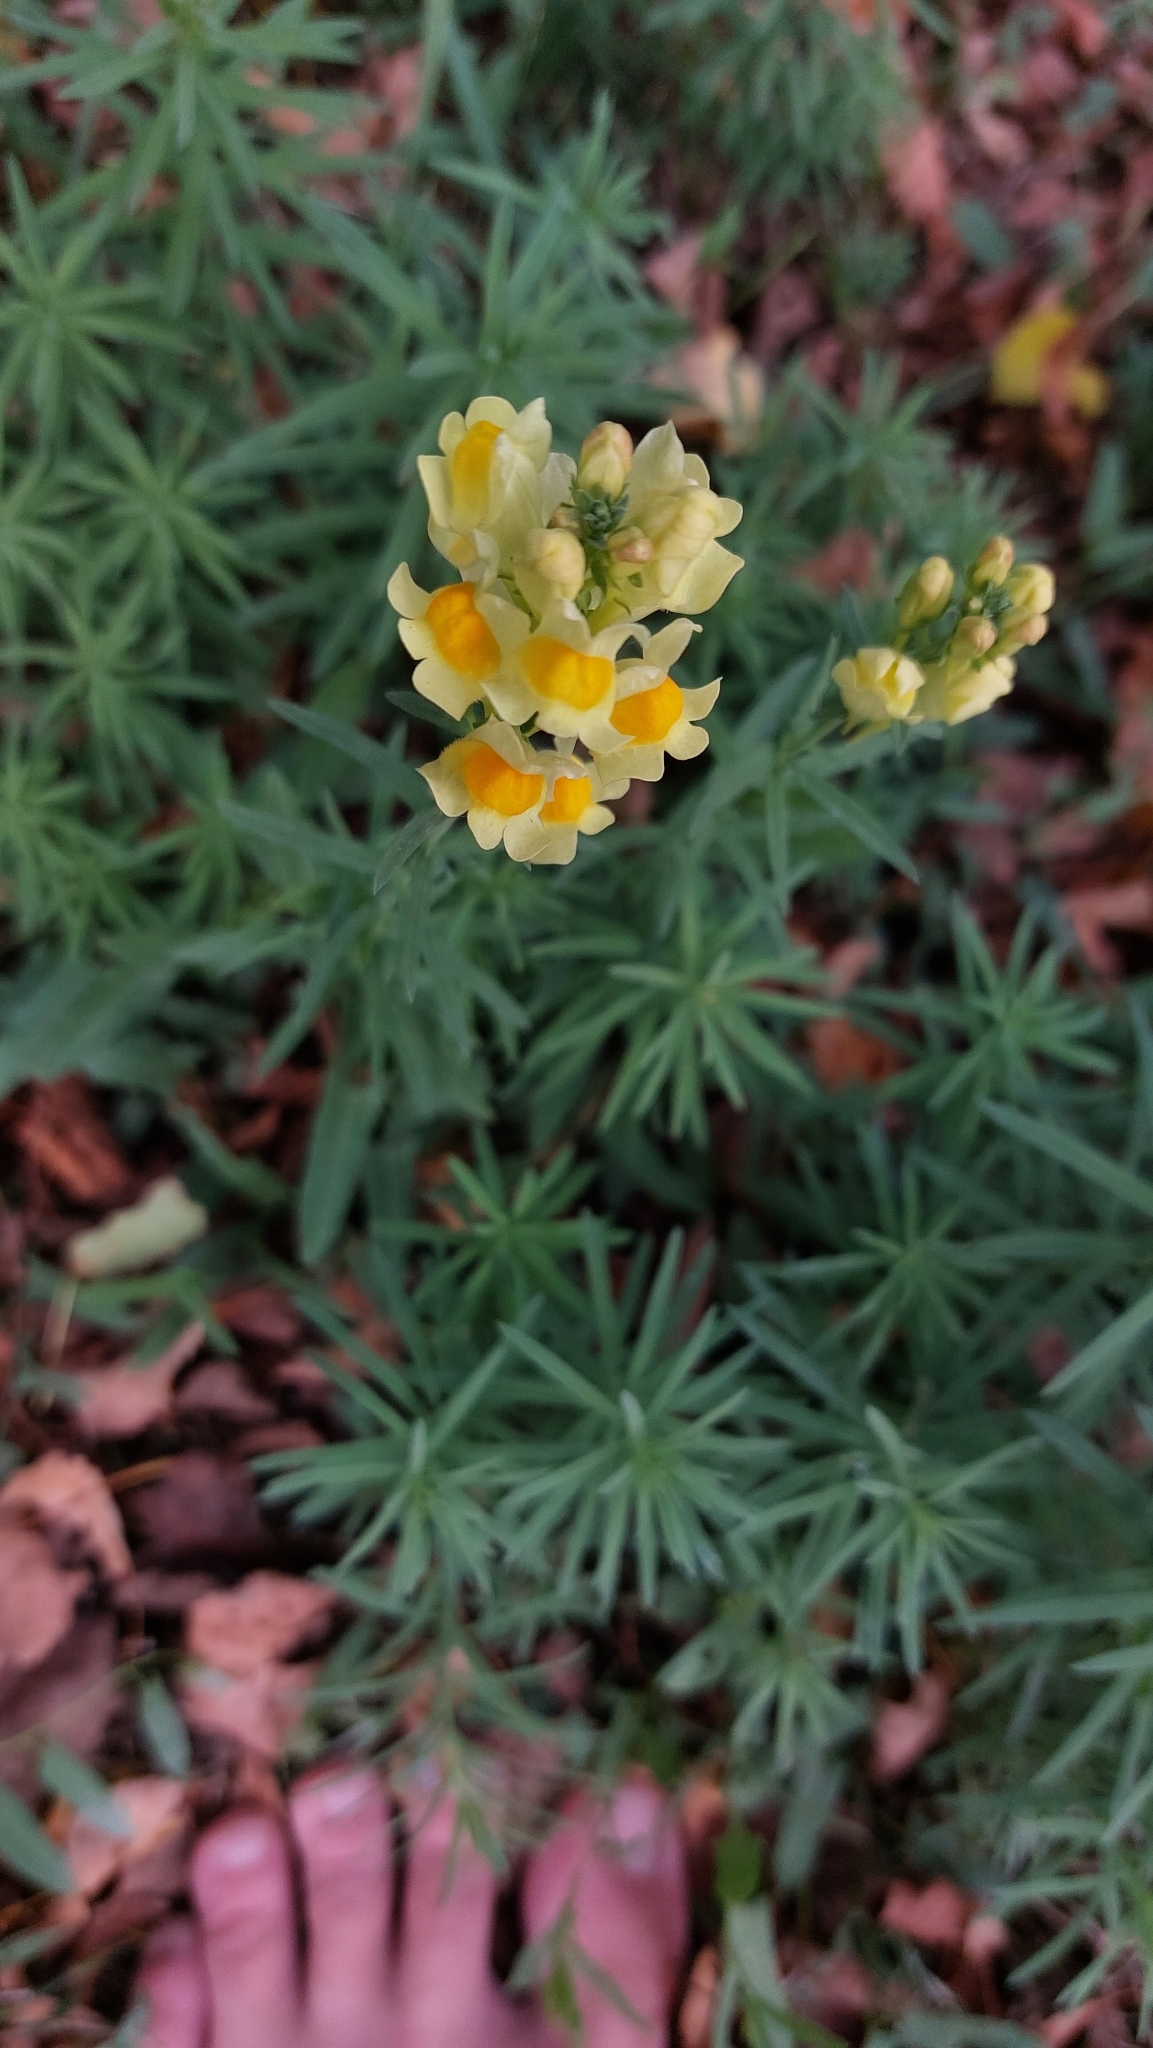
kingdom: Plantae
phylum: Tracheophyta
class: Magnoliopsida
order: Lamiales
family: Plantaginaceae
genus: Linaria
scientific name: Linaria vulgaris
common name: Butter and eggs
